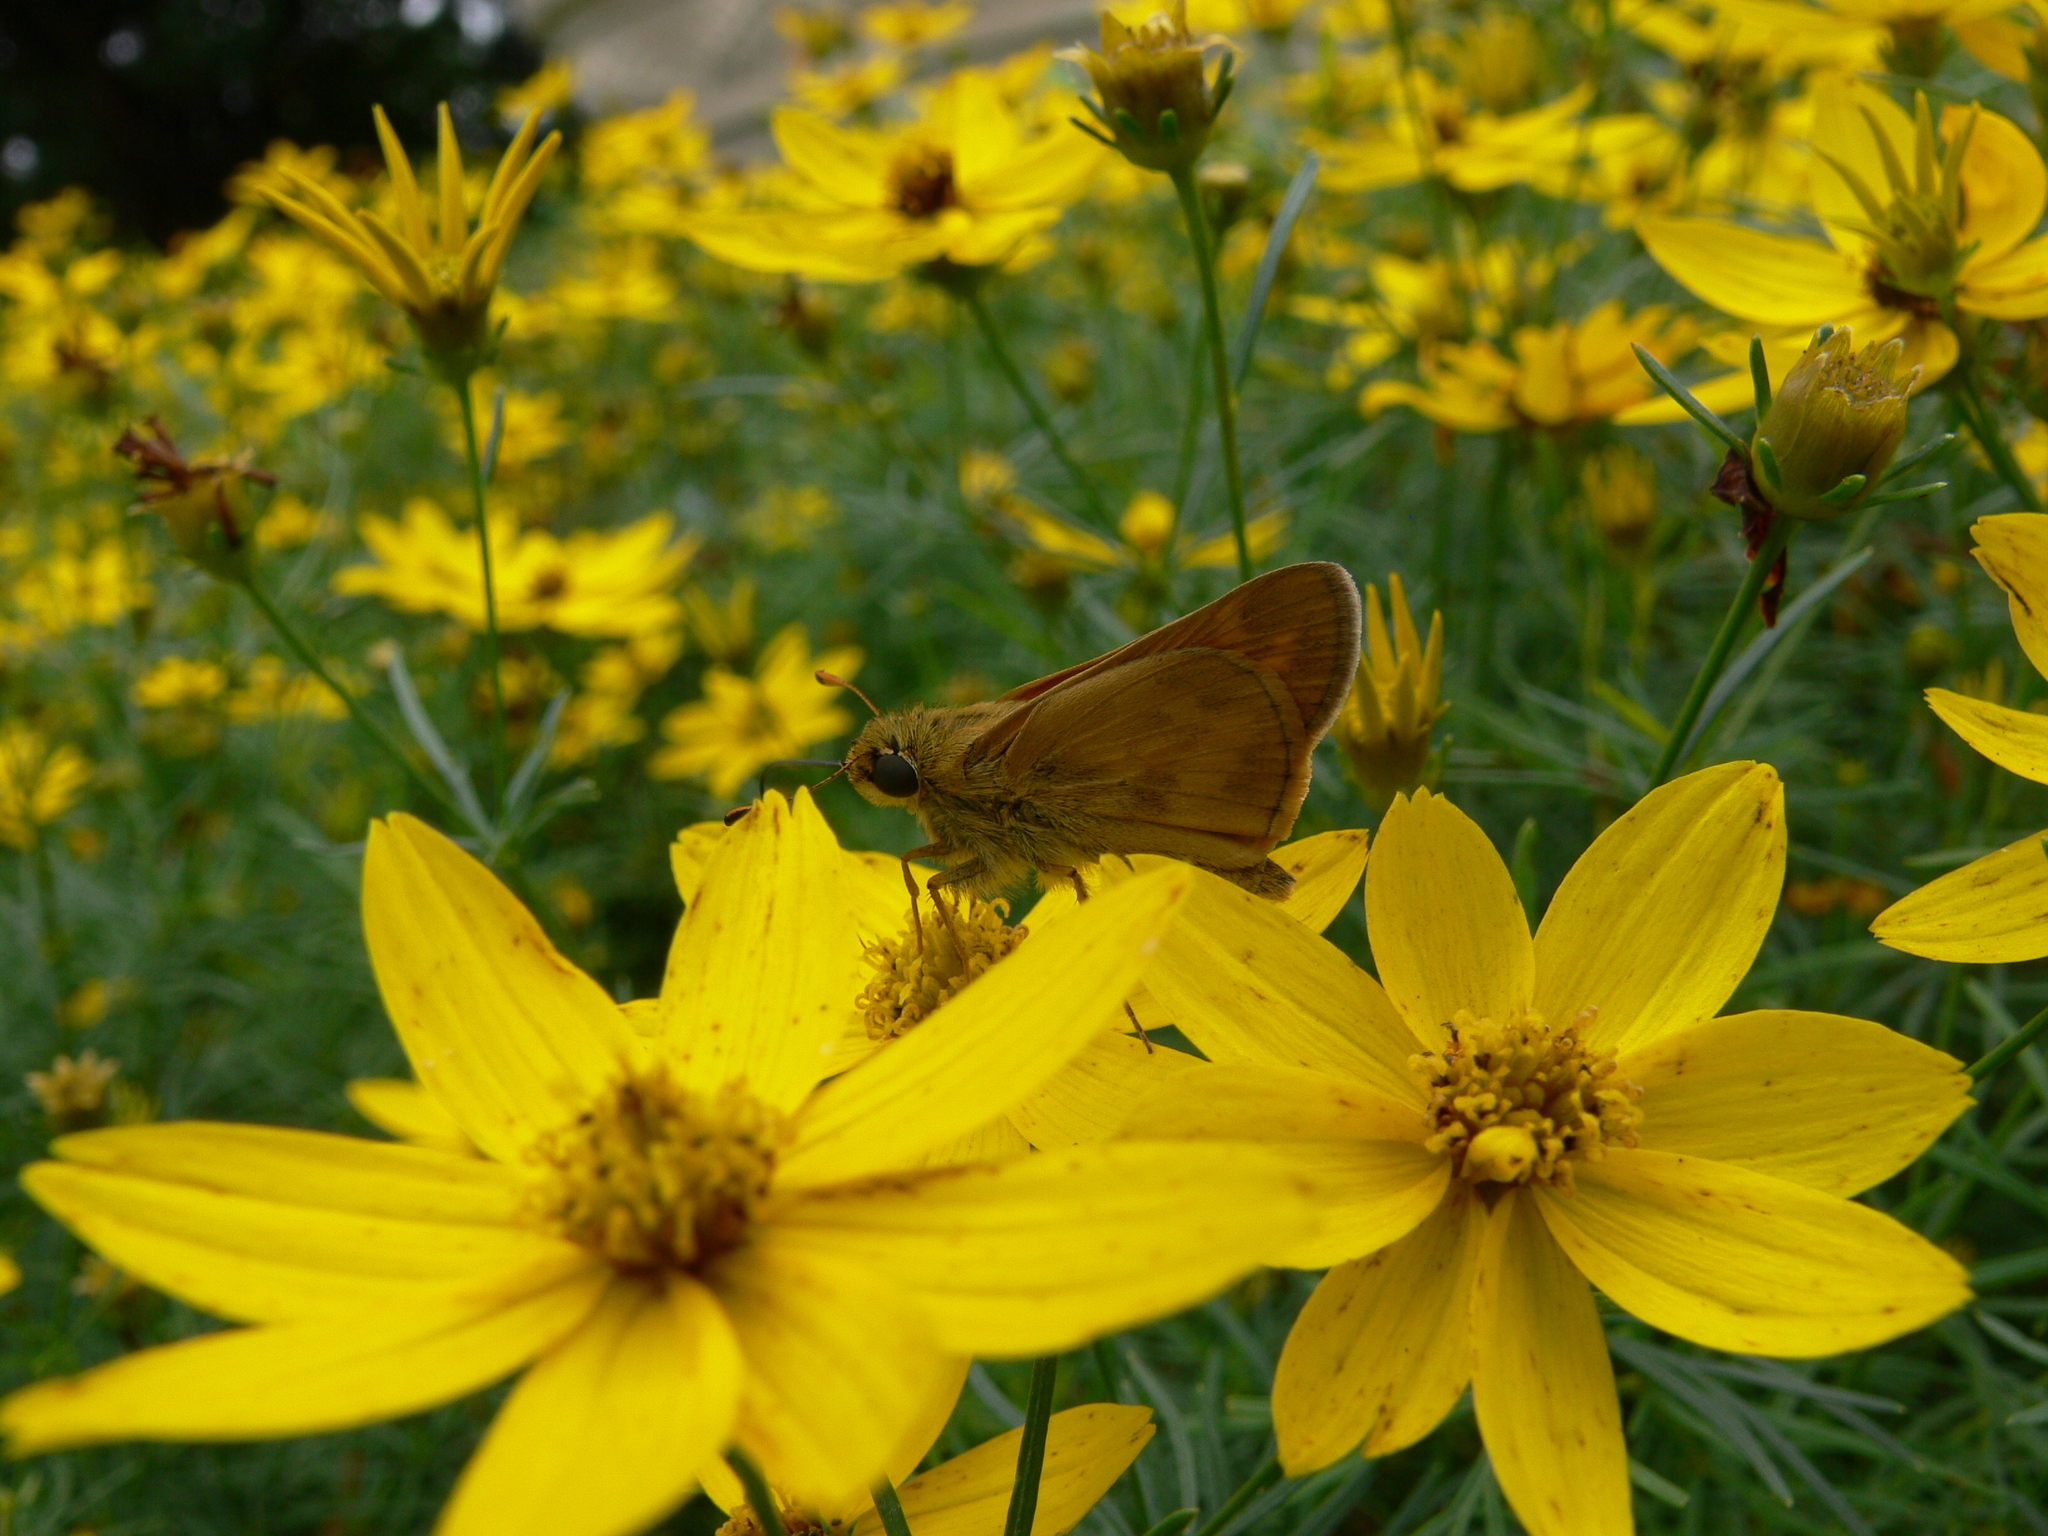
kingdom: Animalia
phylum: Arthropoda
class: Insecta
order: Lepidoptera
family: Hesperiidae
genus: Atalopedes
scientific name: Atalopedes
